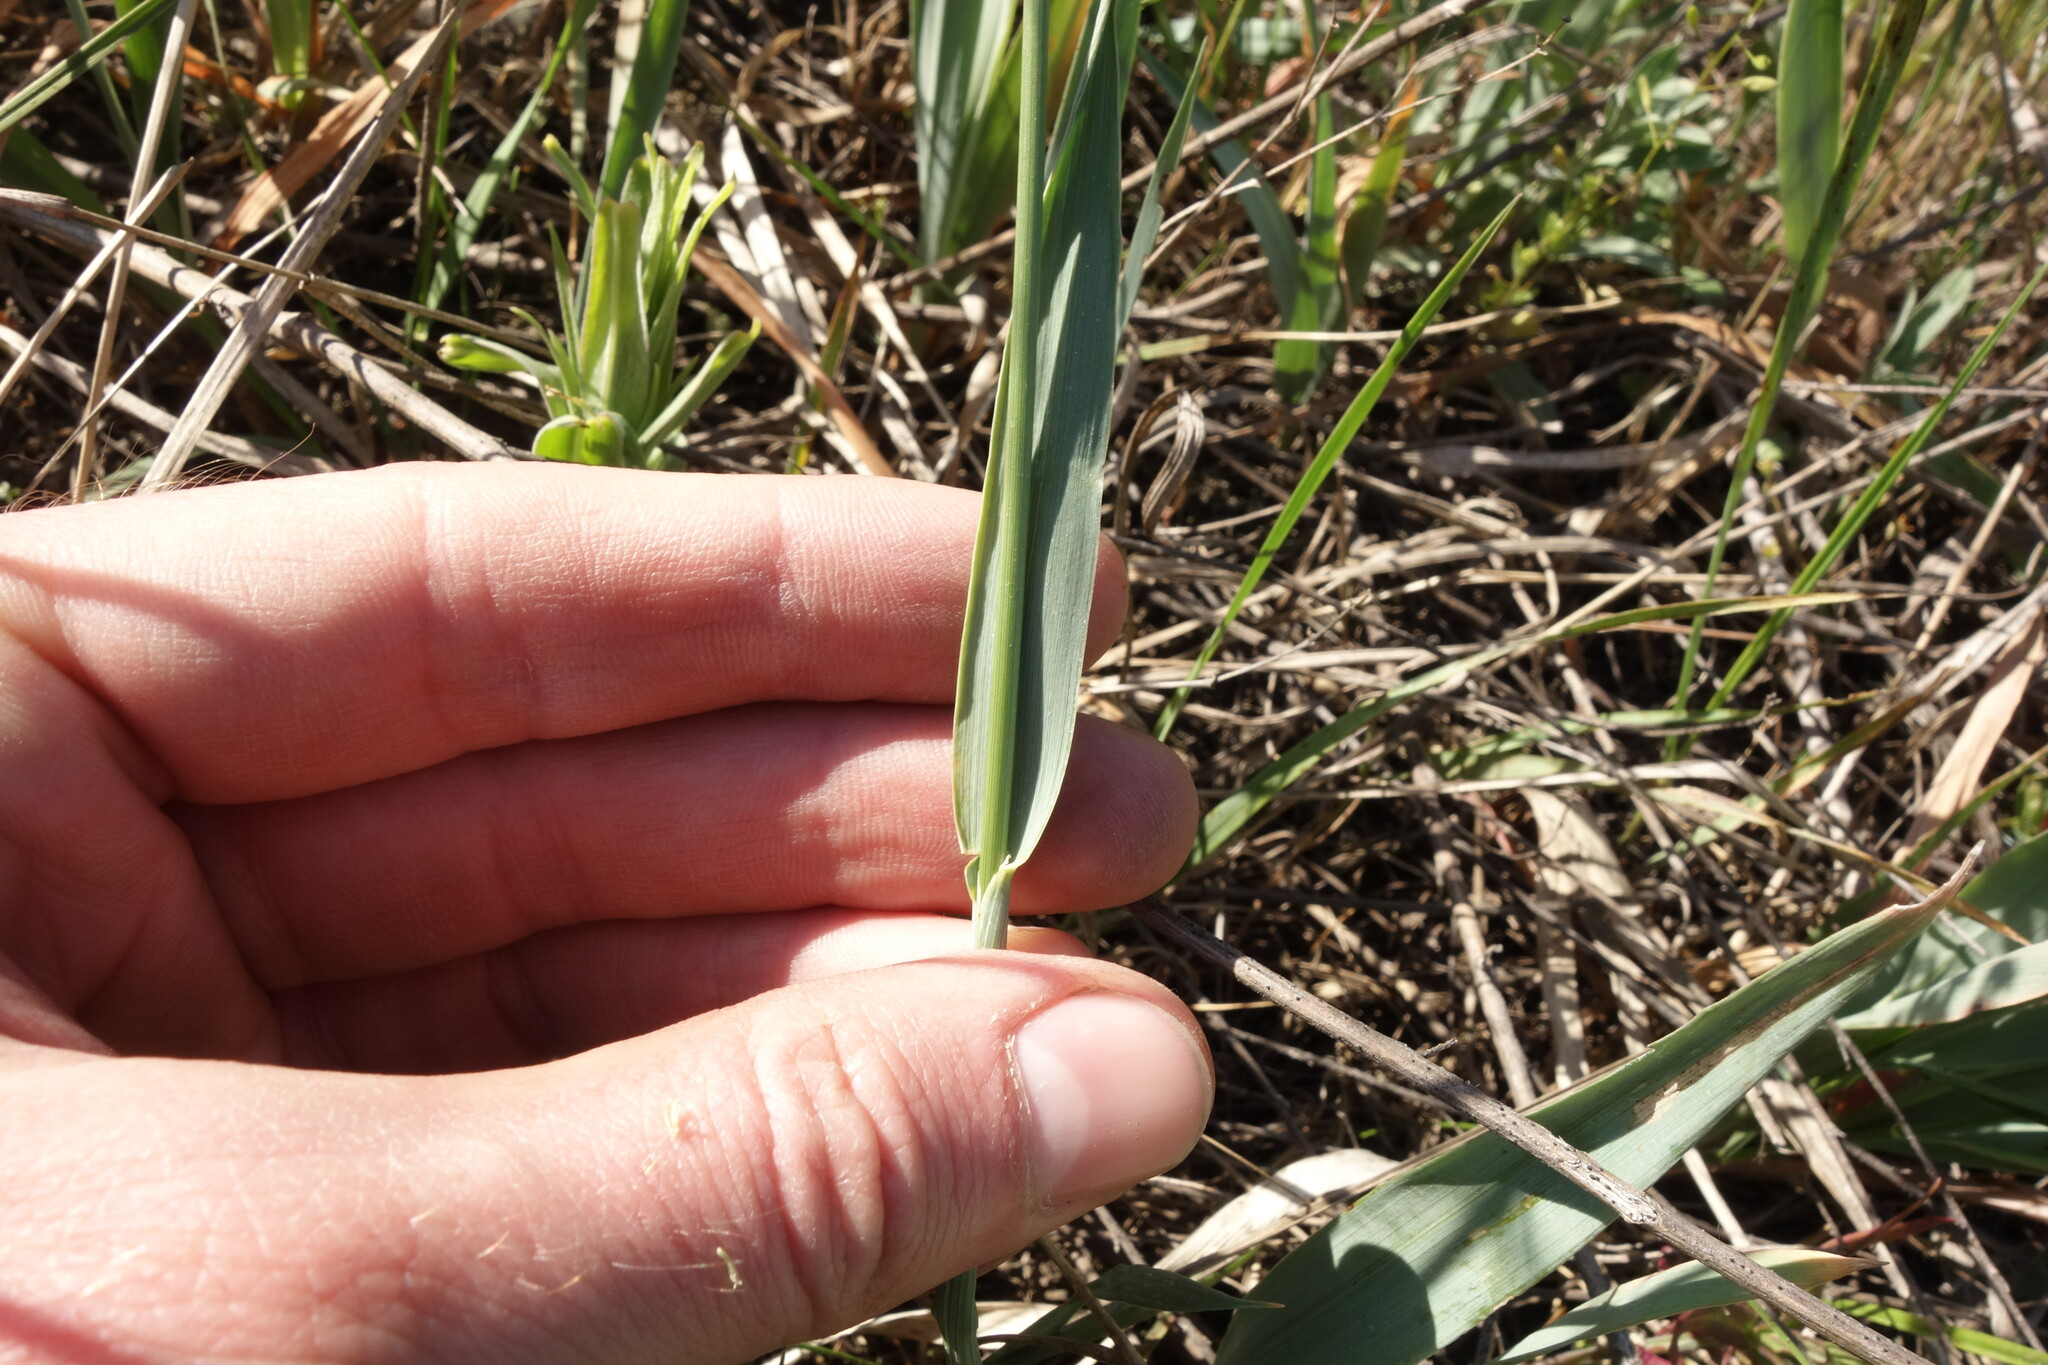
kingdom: Plantae
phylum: Tracheophyta
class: Liliopsida
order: Poales
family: Poaceae
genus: Anthoxanthum
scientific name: Anthoxanthum repens
